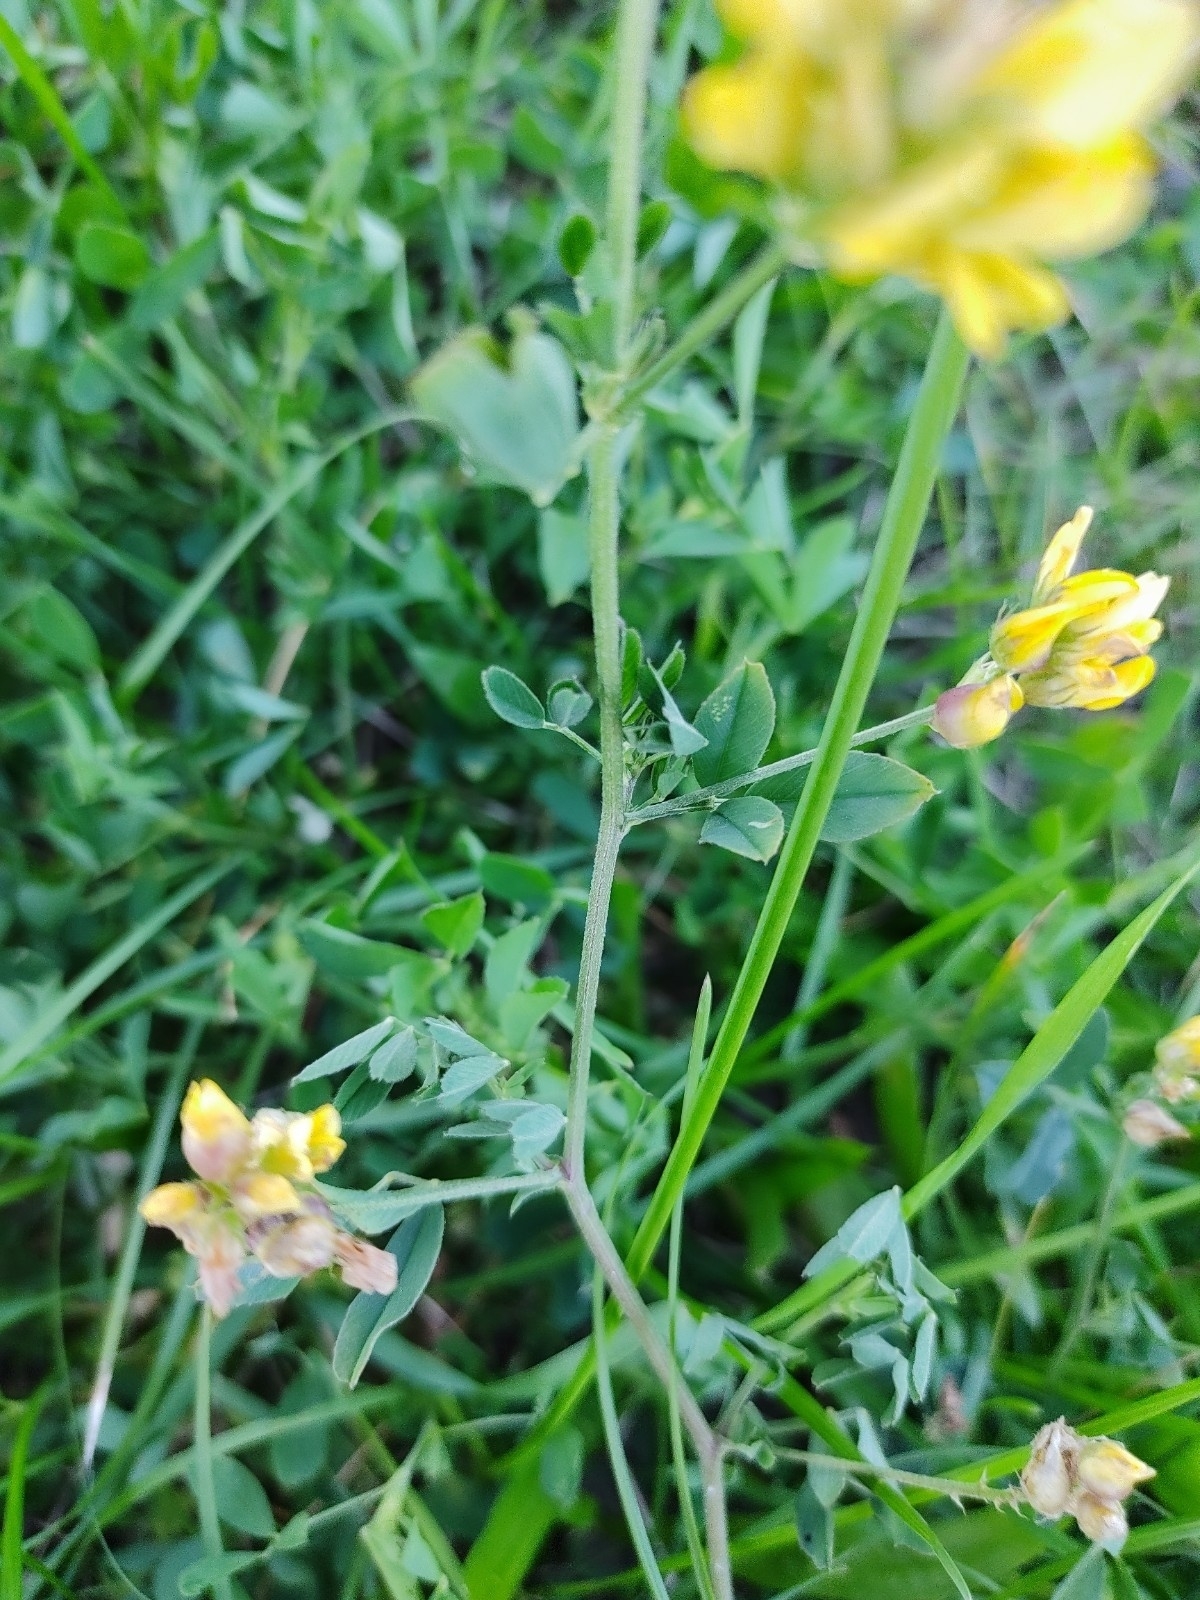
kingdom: Plantae
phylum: Tracheophyta
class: Magnoliopsida
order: Fabales
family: Fabaceae
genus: Medicago
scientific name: Medicago falcata
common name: Sickle medick
